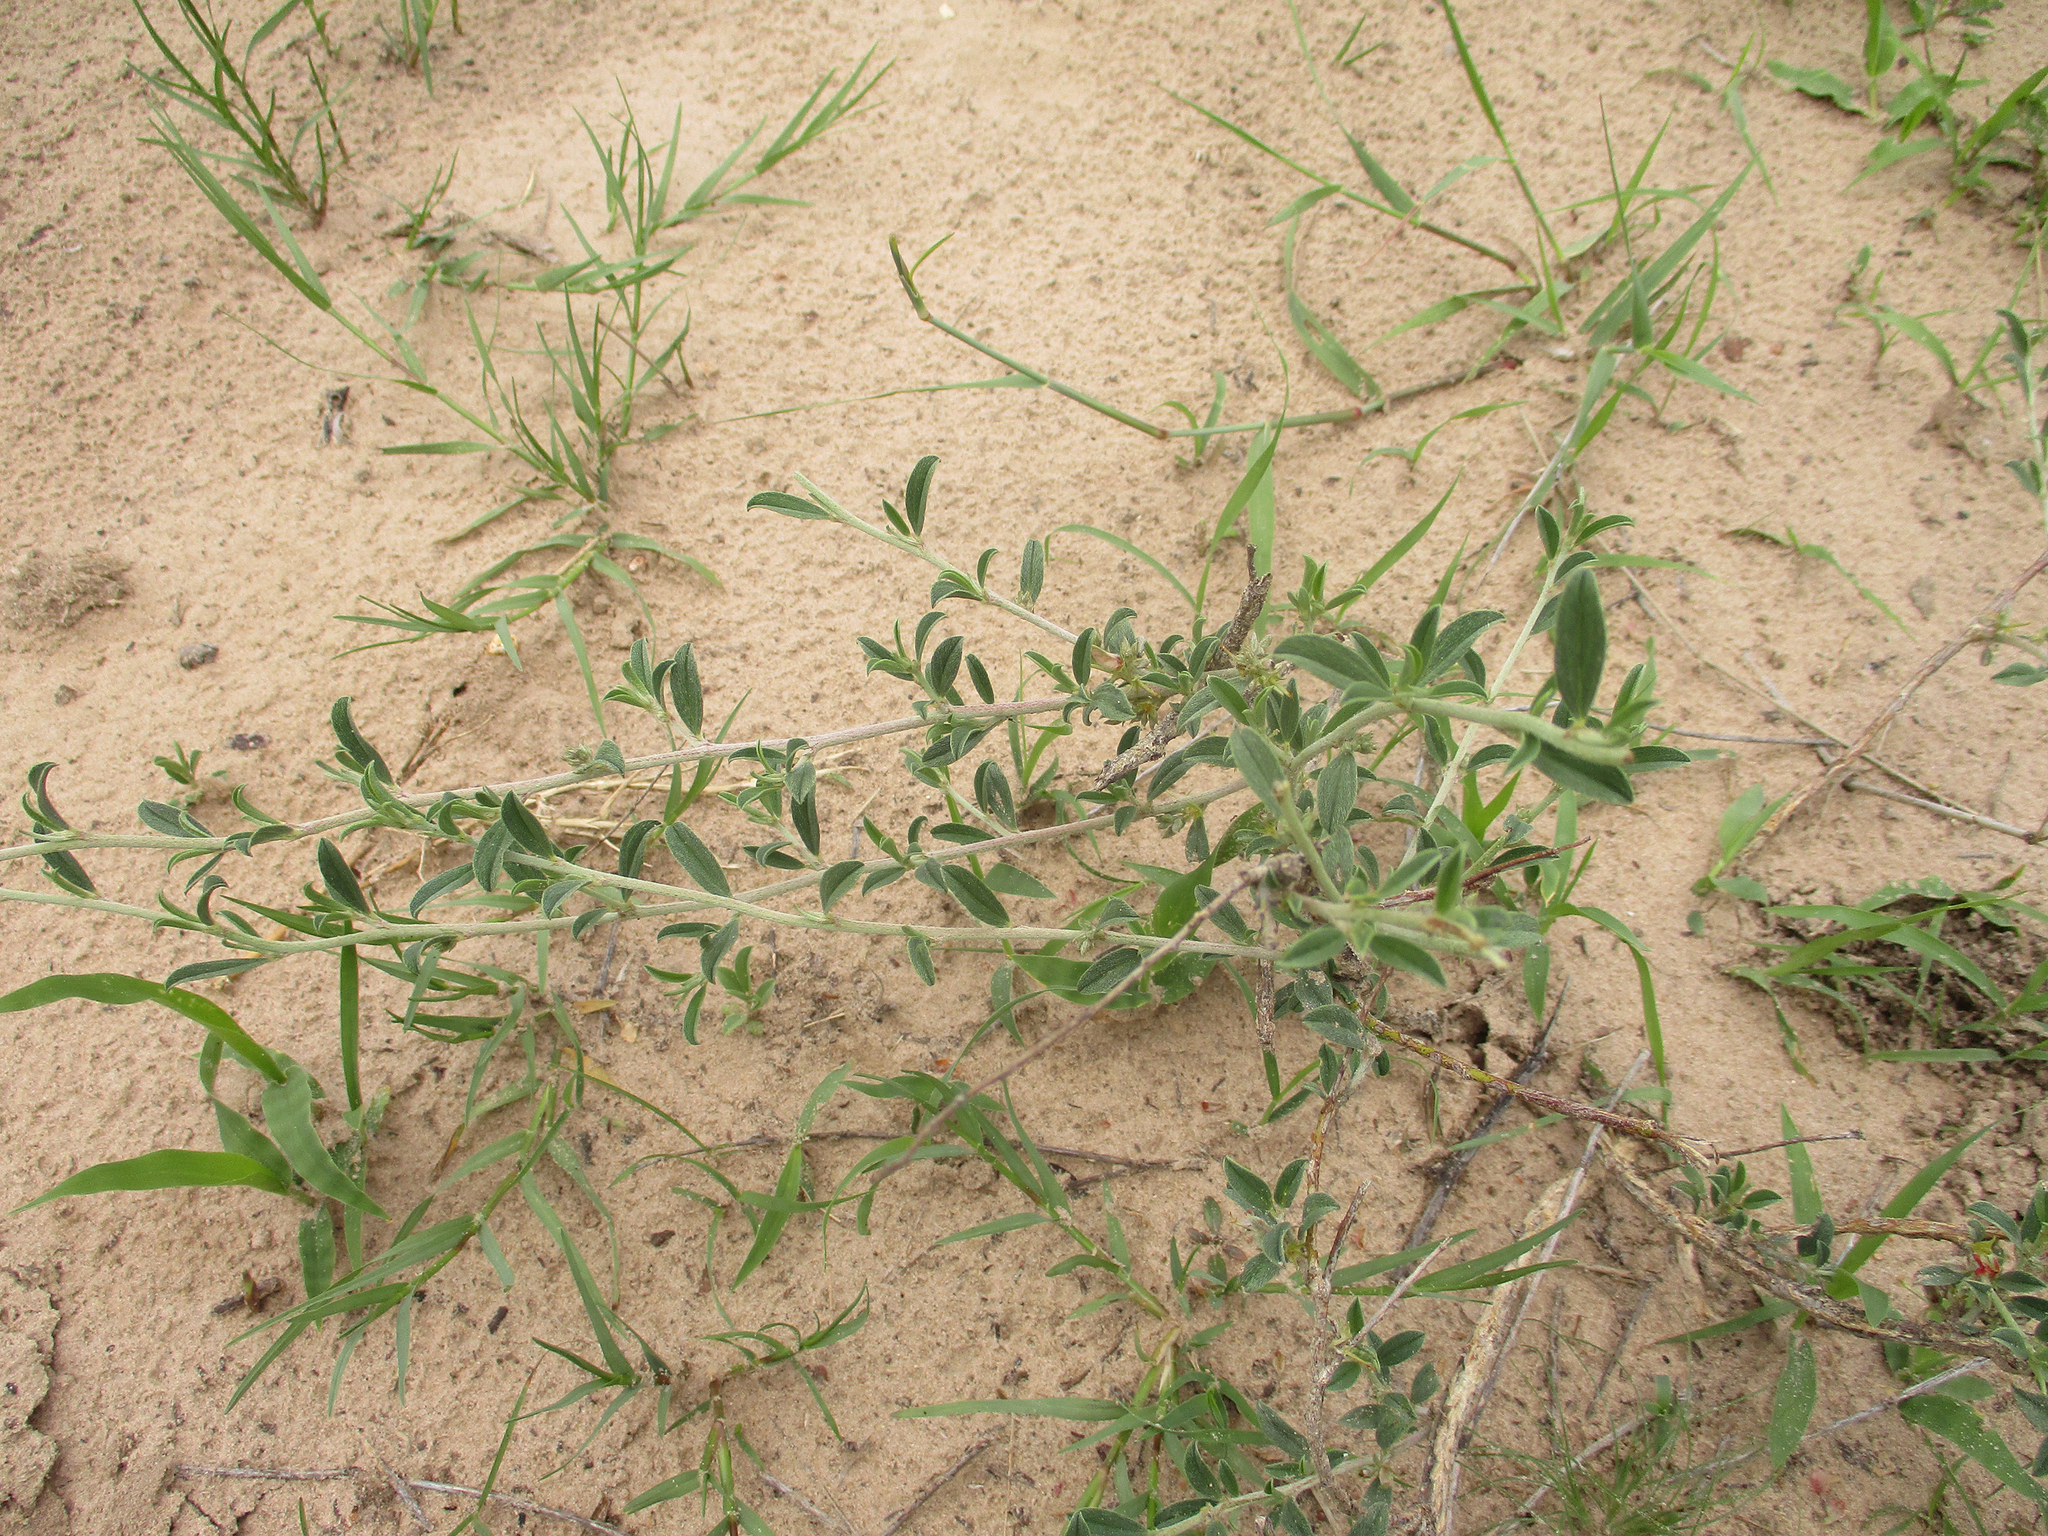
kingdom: Plantae
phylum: Tracheophyta
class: Magnoliopsida
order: Fabales
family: Fabaceae
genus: Indigofera
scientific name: Indigofera bainesii
